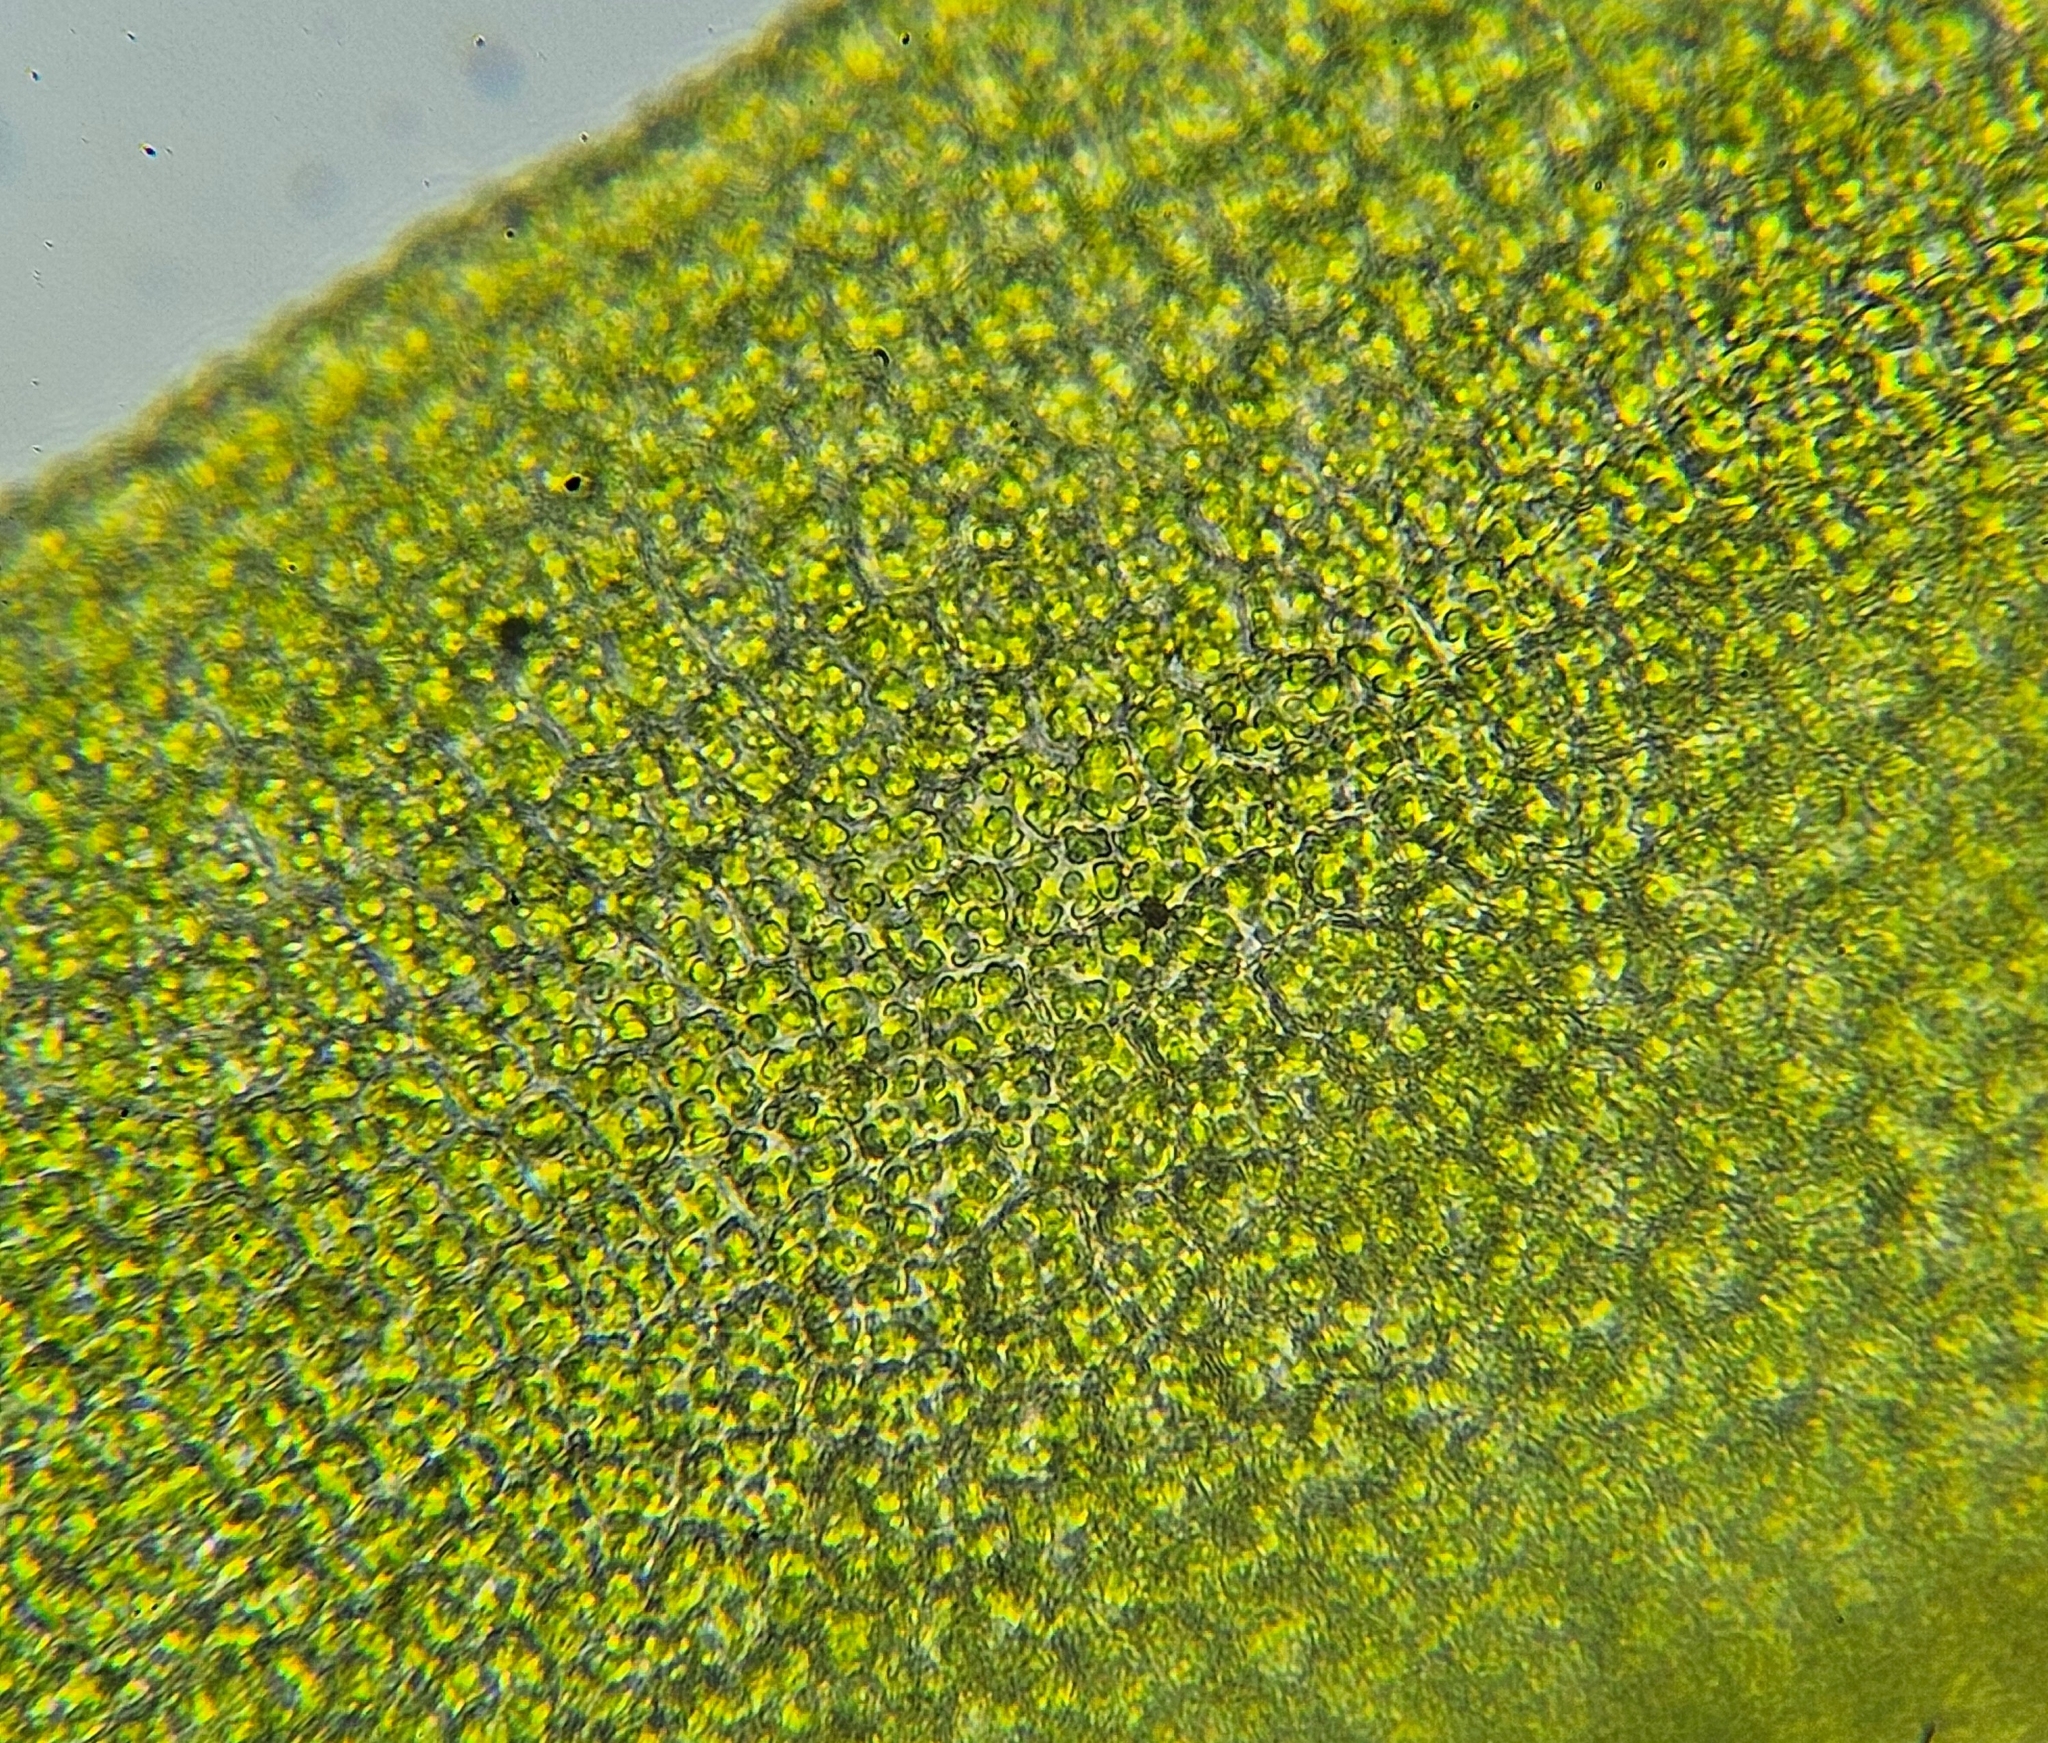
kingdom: Plantae
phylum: Bryophyta
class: Bryopsida
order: Pottiales
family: Pottiaceae
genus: Barbula
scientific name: Barbula unguiculata
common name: Prickly beard moss
